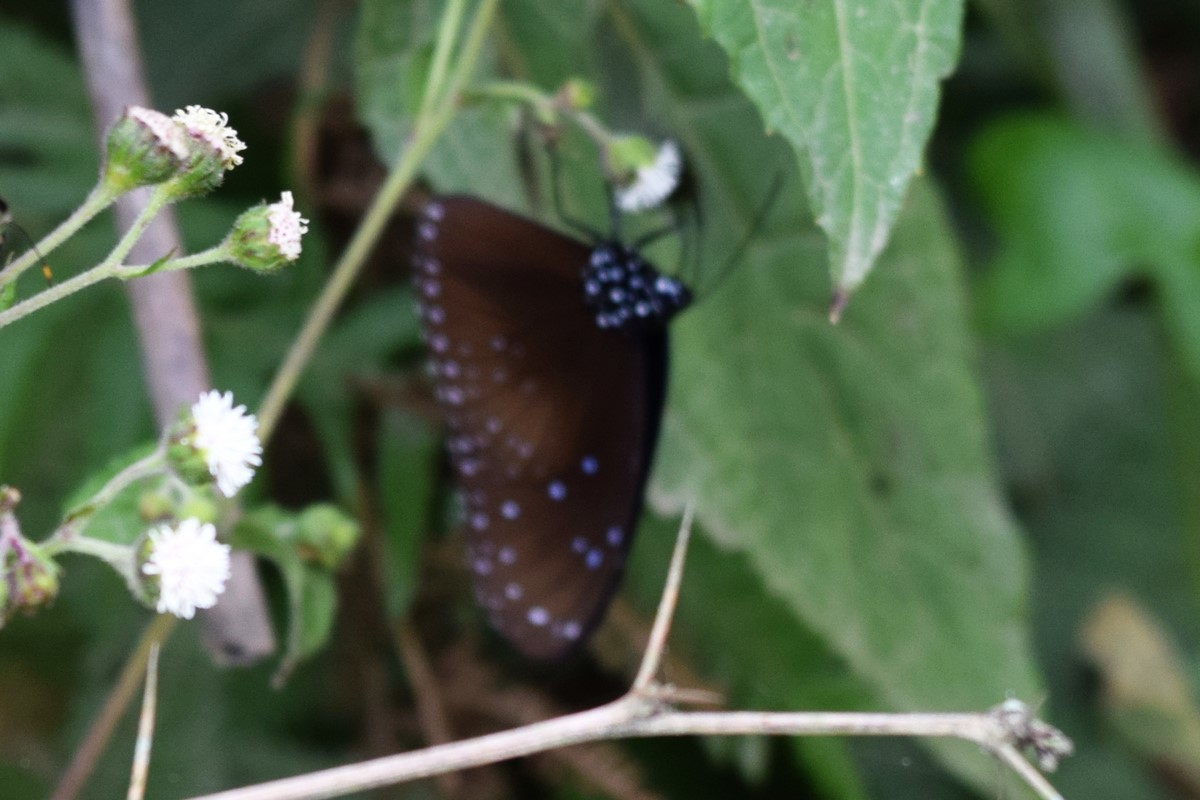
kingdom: Animalia
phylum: Arthropoda
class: Insecta
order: Lepidoptera
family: Nymphalidae
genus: Euploea
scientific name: Euploea mulciber
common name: Striped blue crow butterfly
